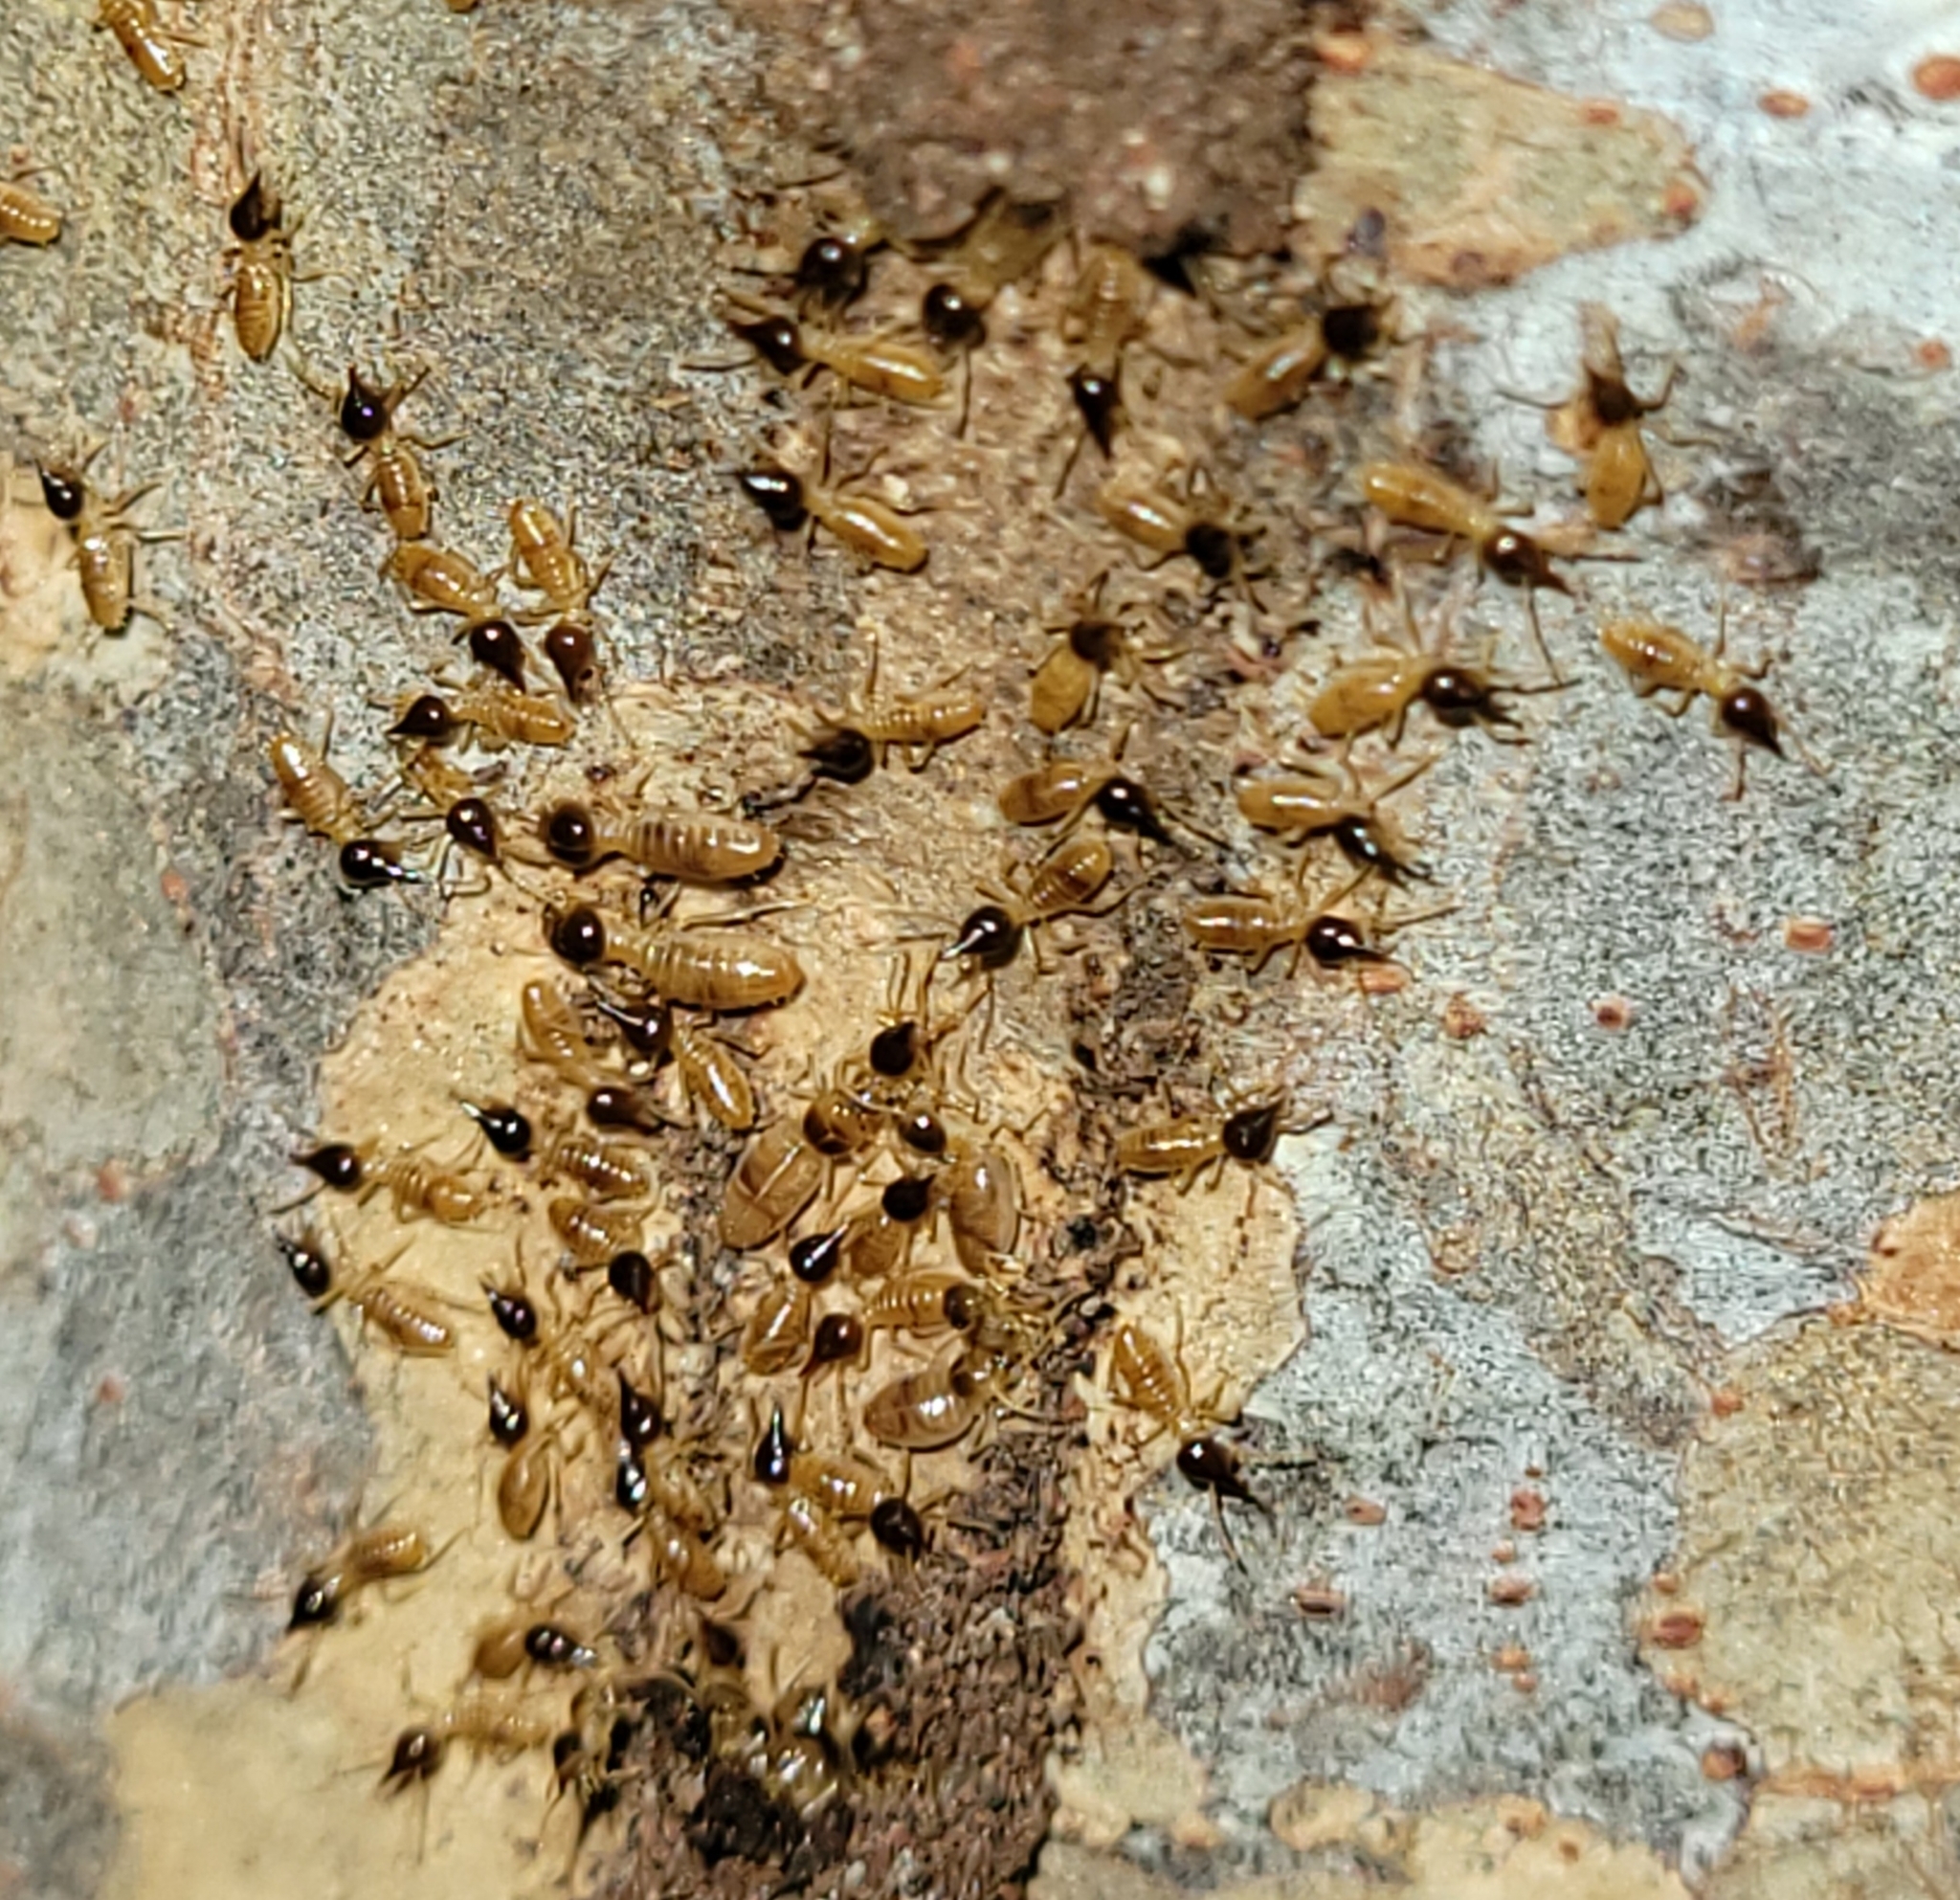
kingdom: Animalia
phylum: Arthropoda
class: Insecta
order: Blattodea
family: Termitidae
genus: Nasutitermes
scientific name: Nasutitermes
